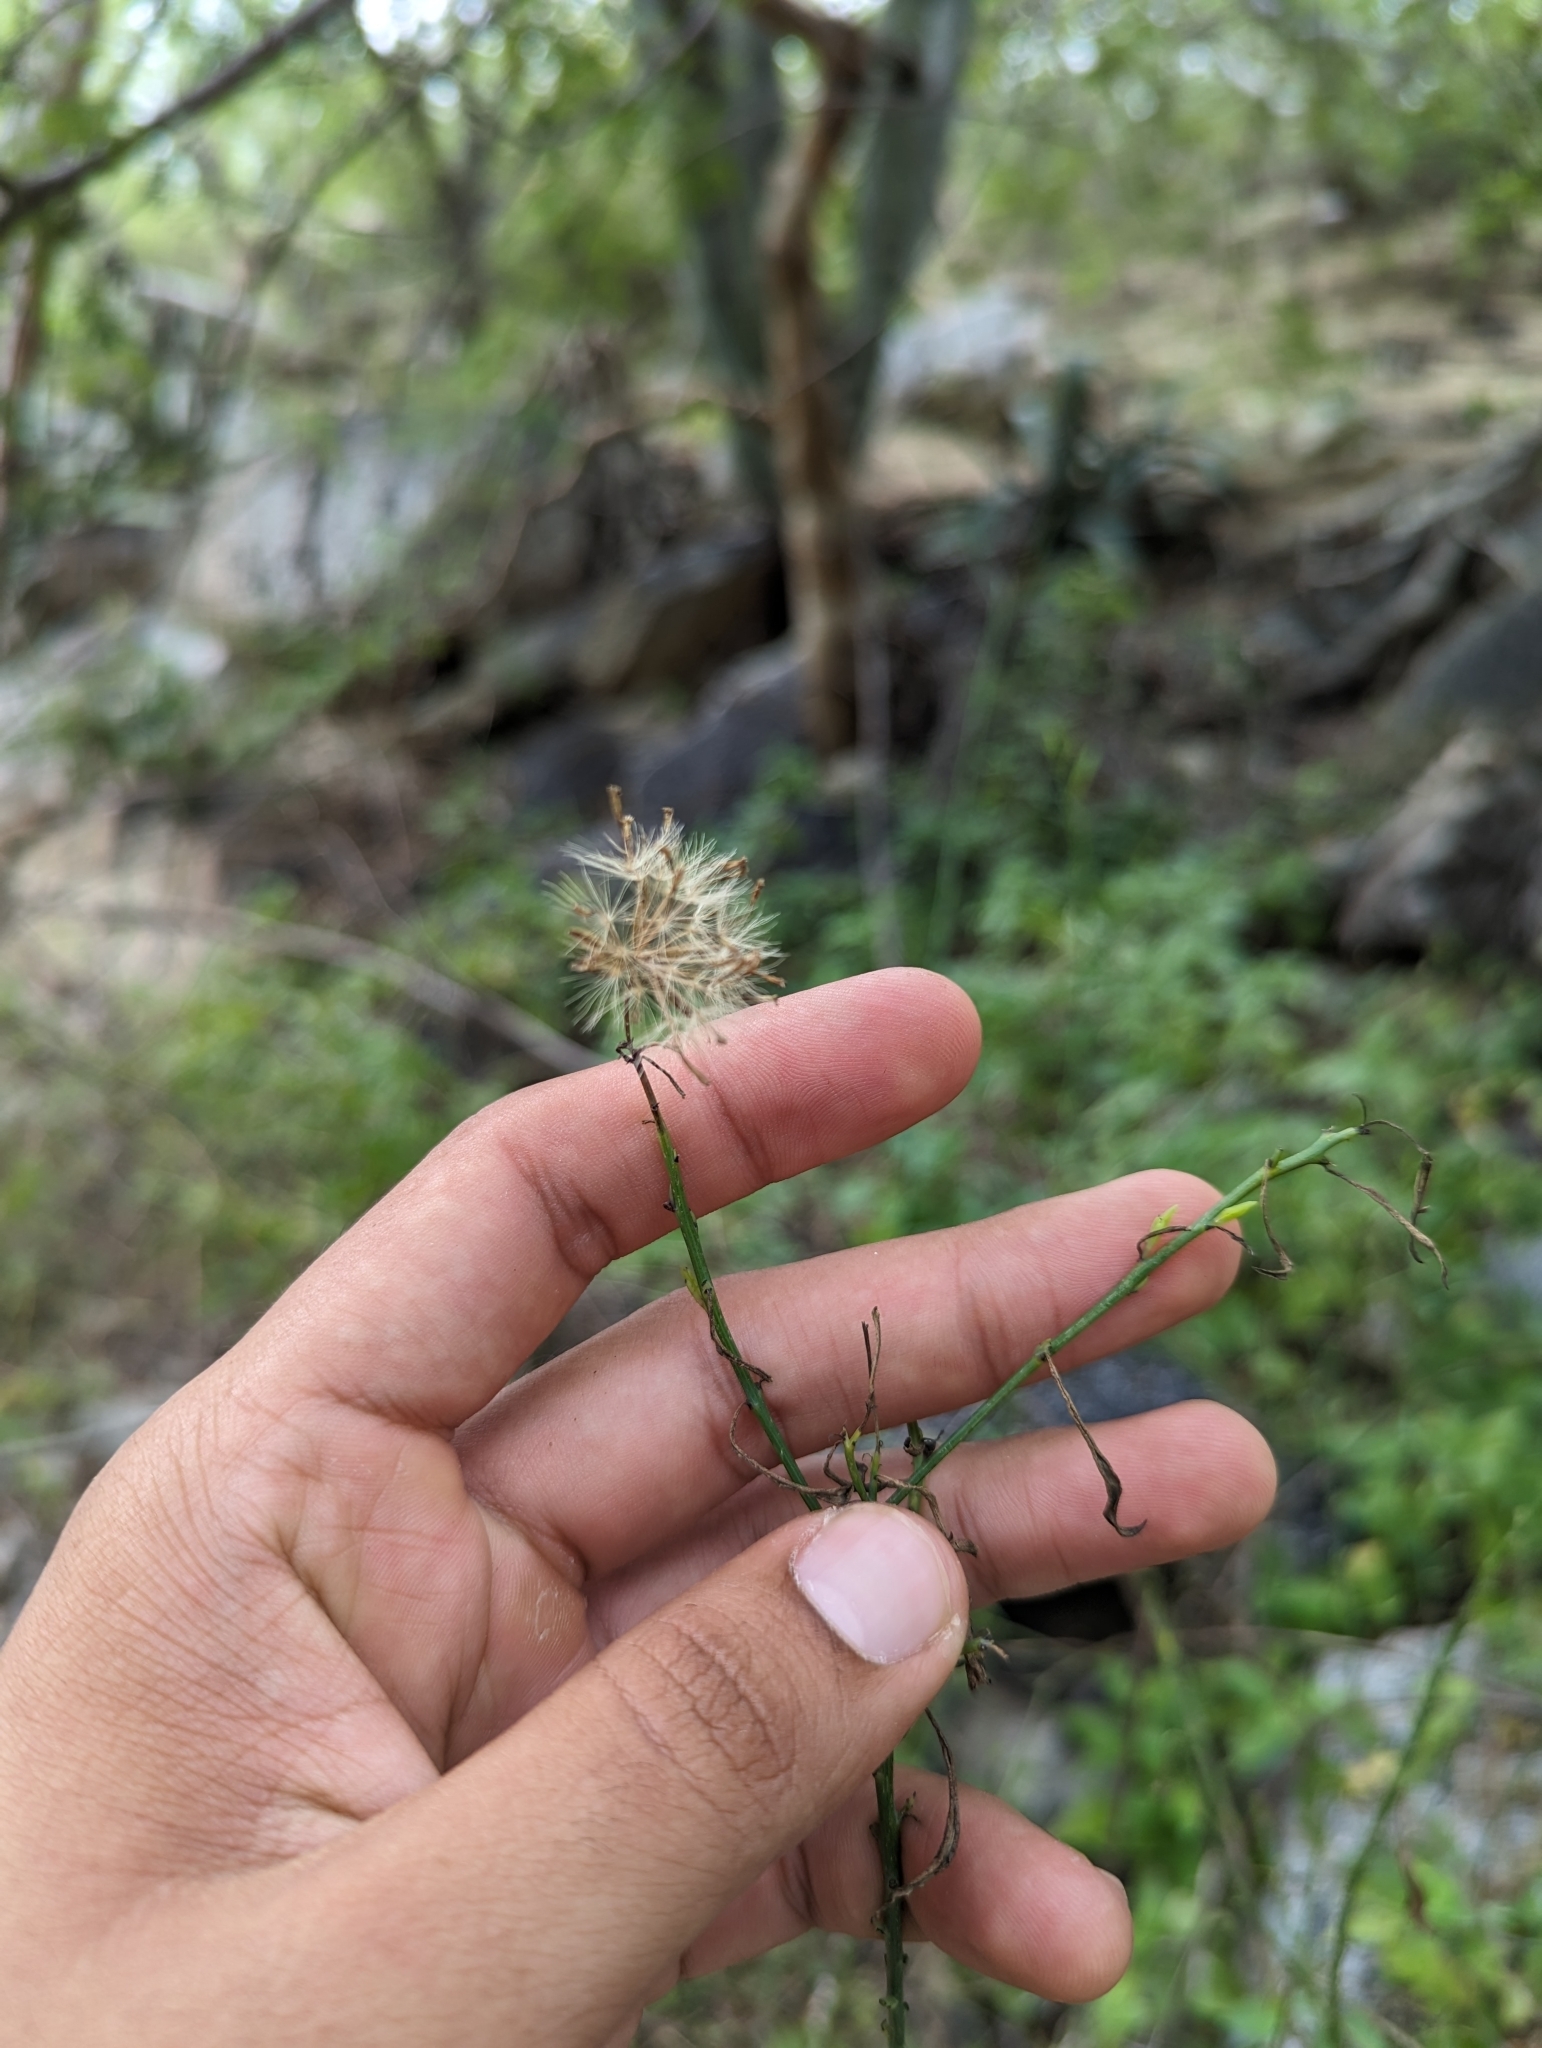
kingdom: Plantae
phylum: Tracheophyta
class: Magnoliopsida
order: Asterales
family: Asteraceae
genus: Porophyllum
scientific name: Porophyllum gracile
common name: Odora
